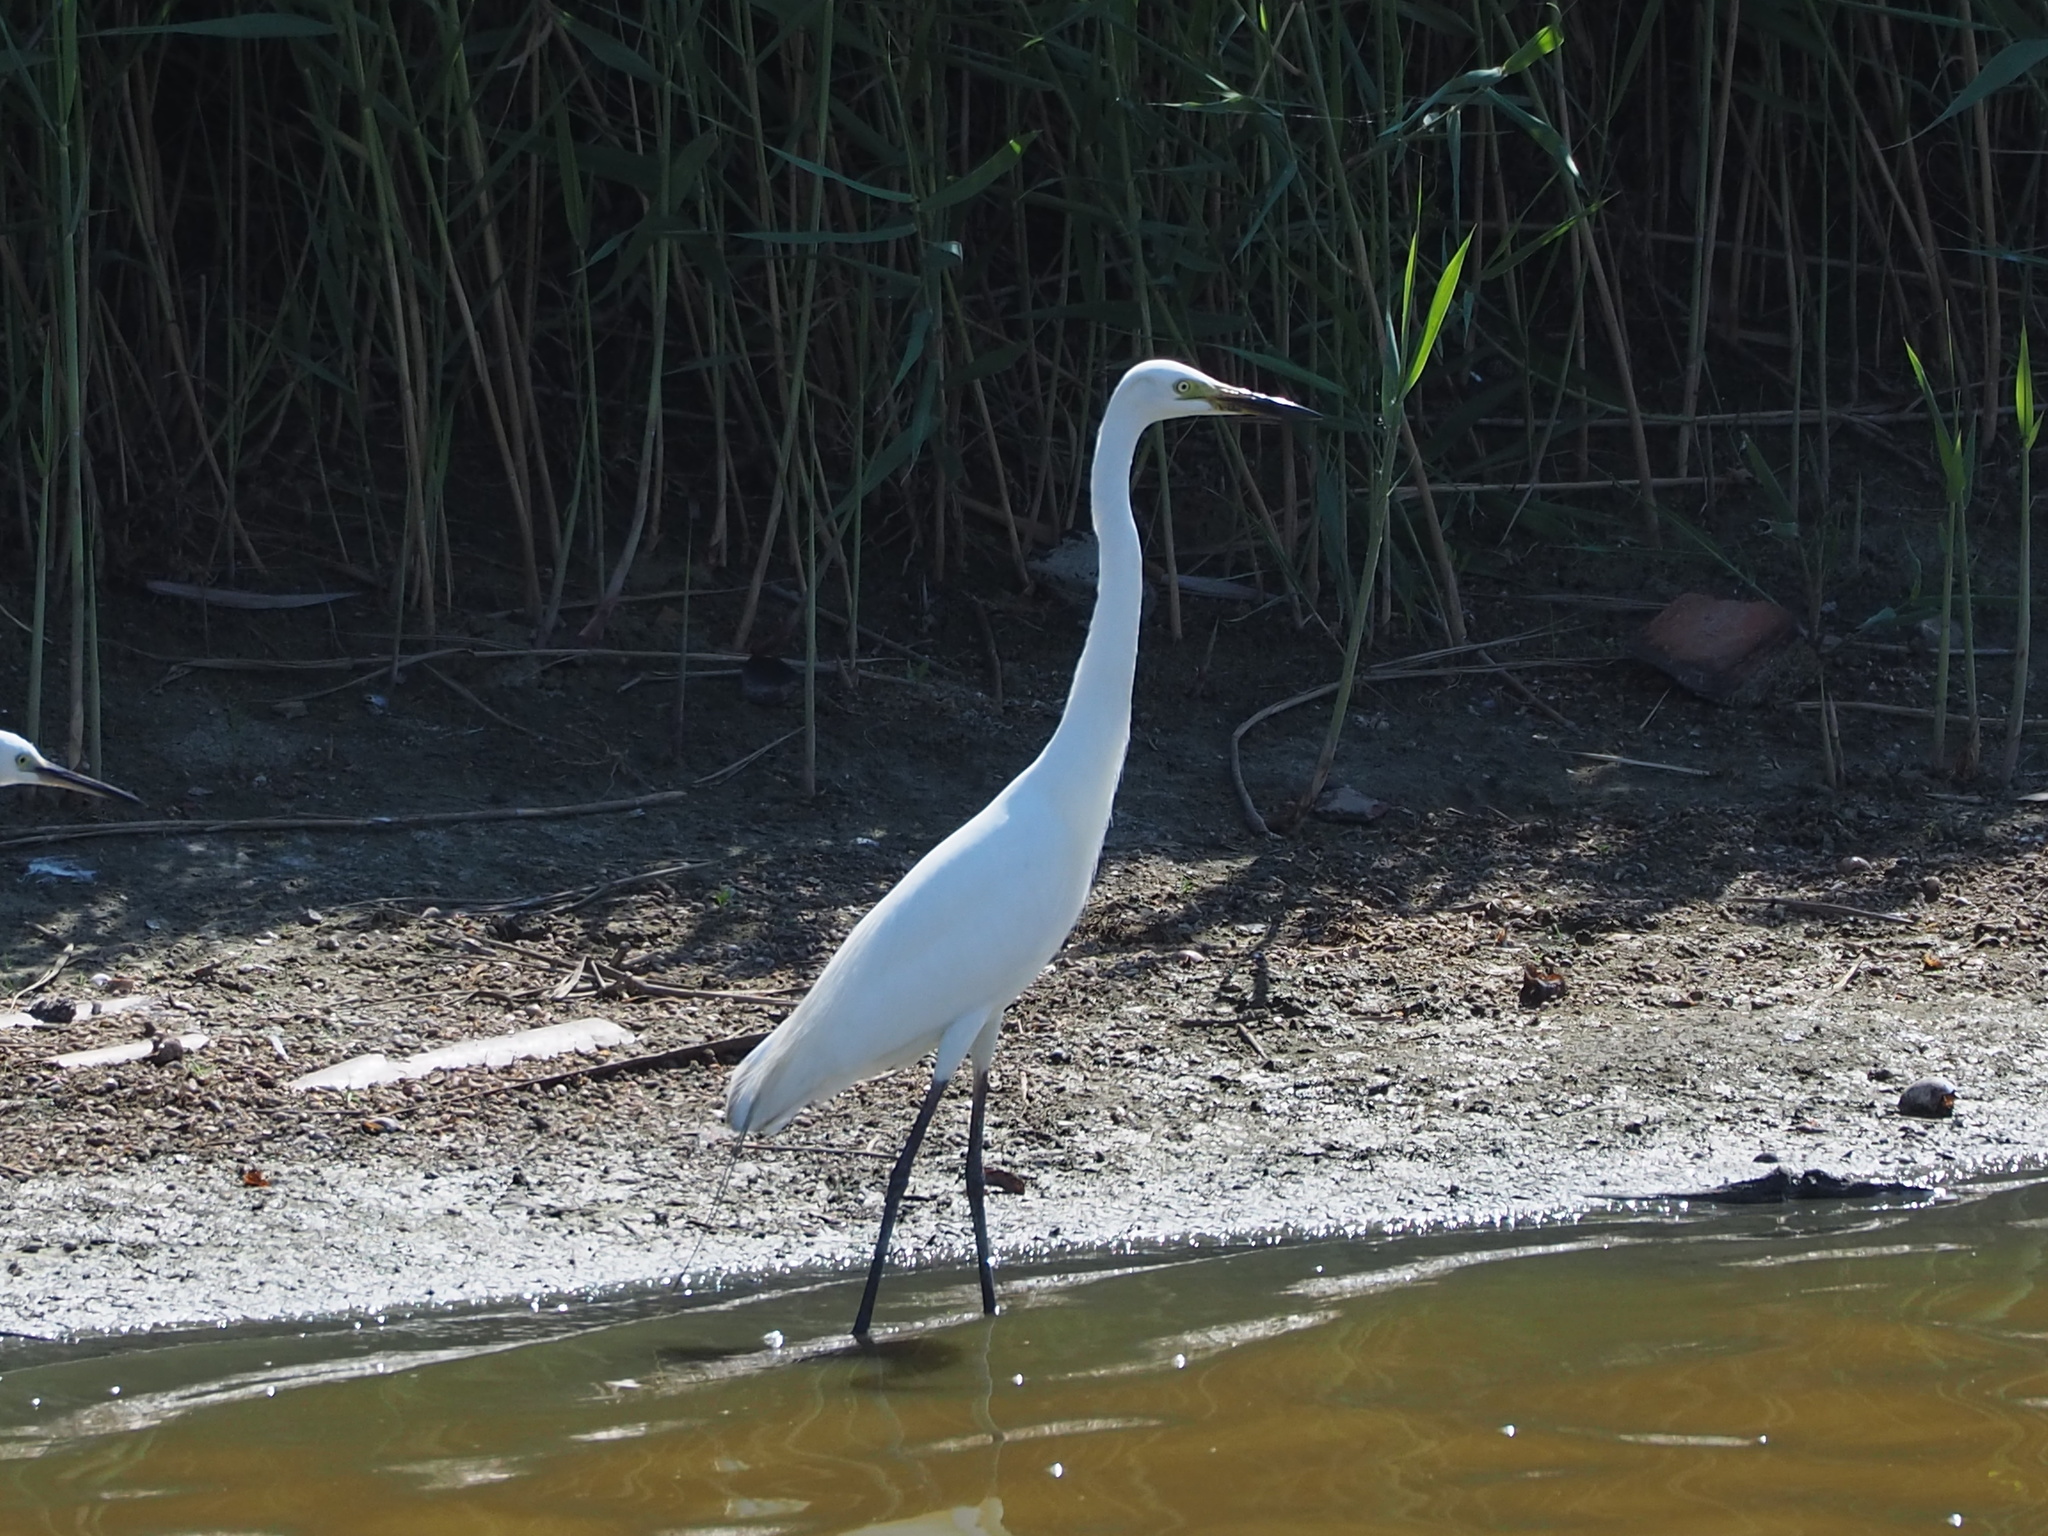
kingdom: Animalia
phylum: Chordata
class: Aves
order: Pelecaniformes
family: Ardeidae
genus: Egretta
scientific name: Egretta intermedia
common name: Intermediate egret
